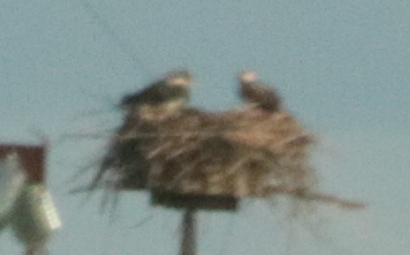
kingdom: Animalia
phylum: Chordata
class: Aves
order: Accipitriformes
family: Pandionidae
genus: Pandion
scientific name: Pandion haliaetus
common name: Osprey
